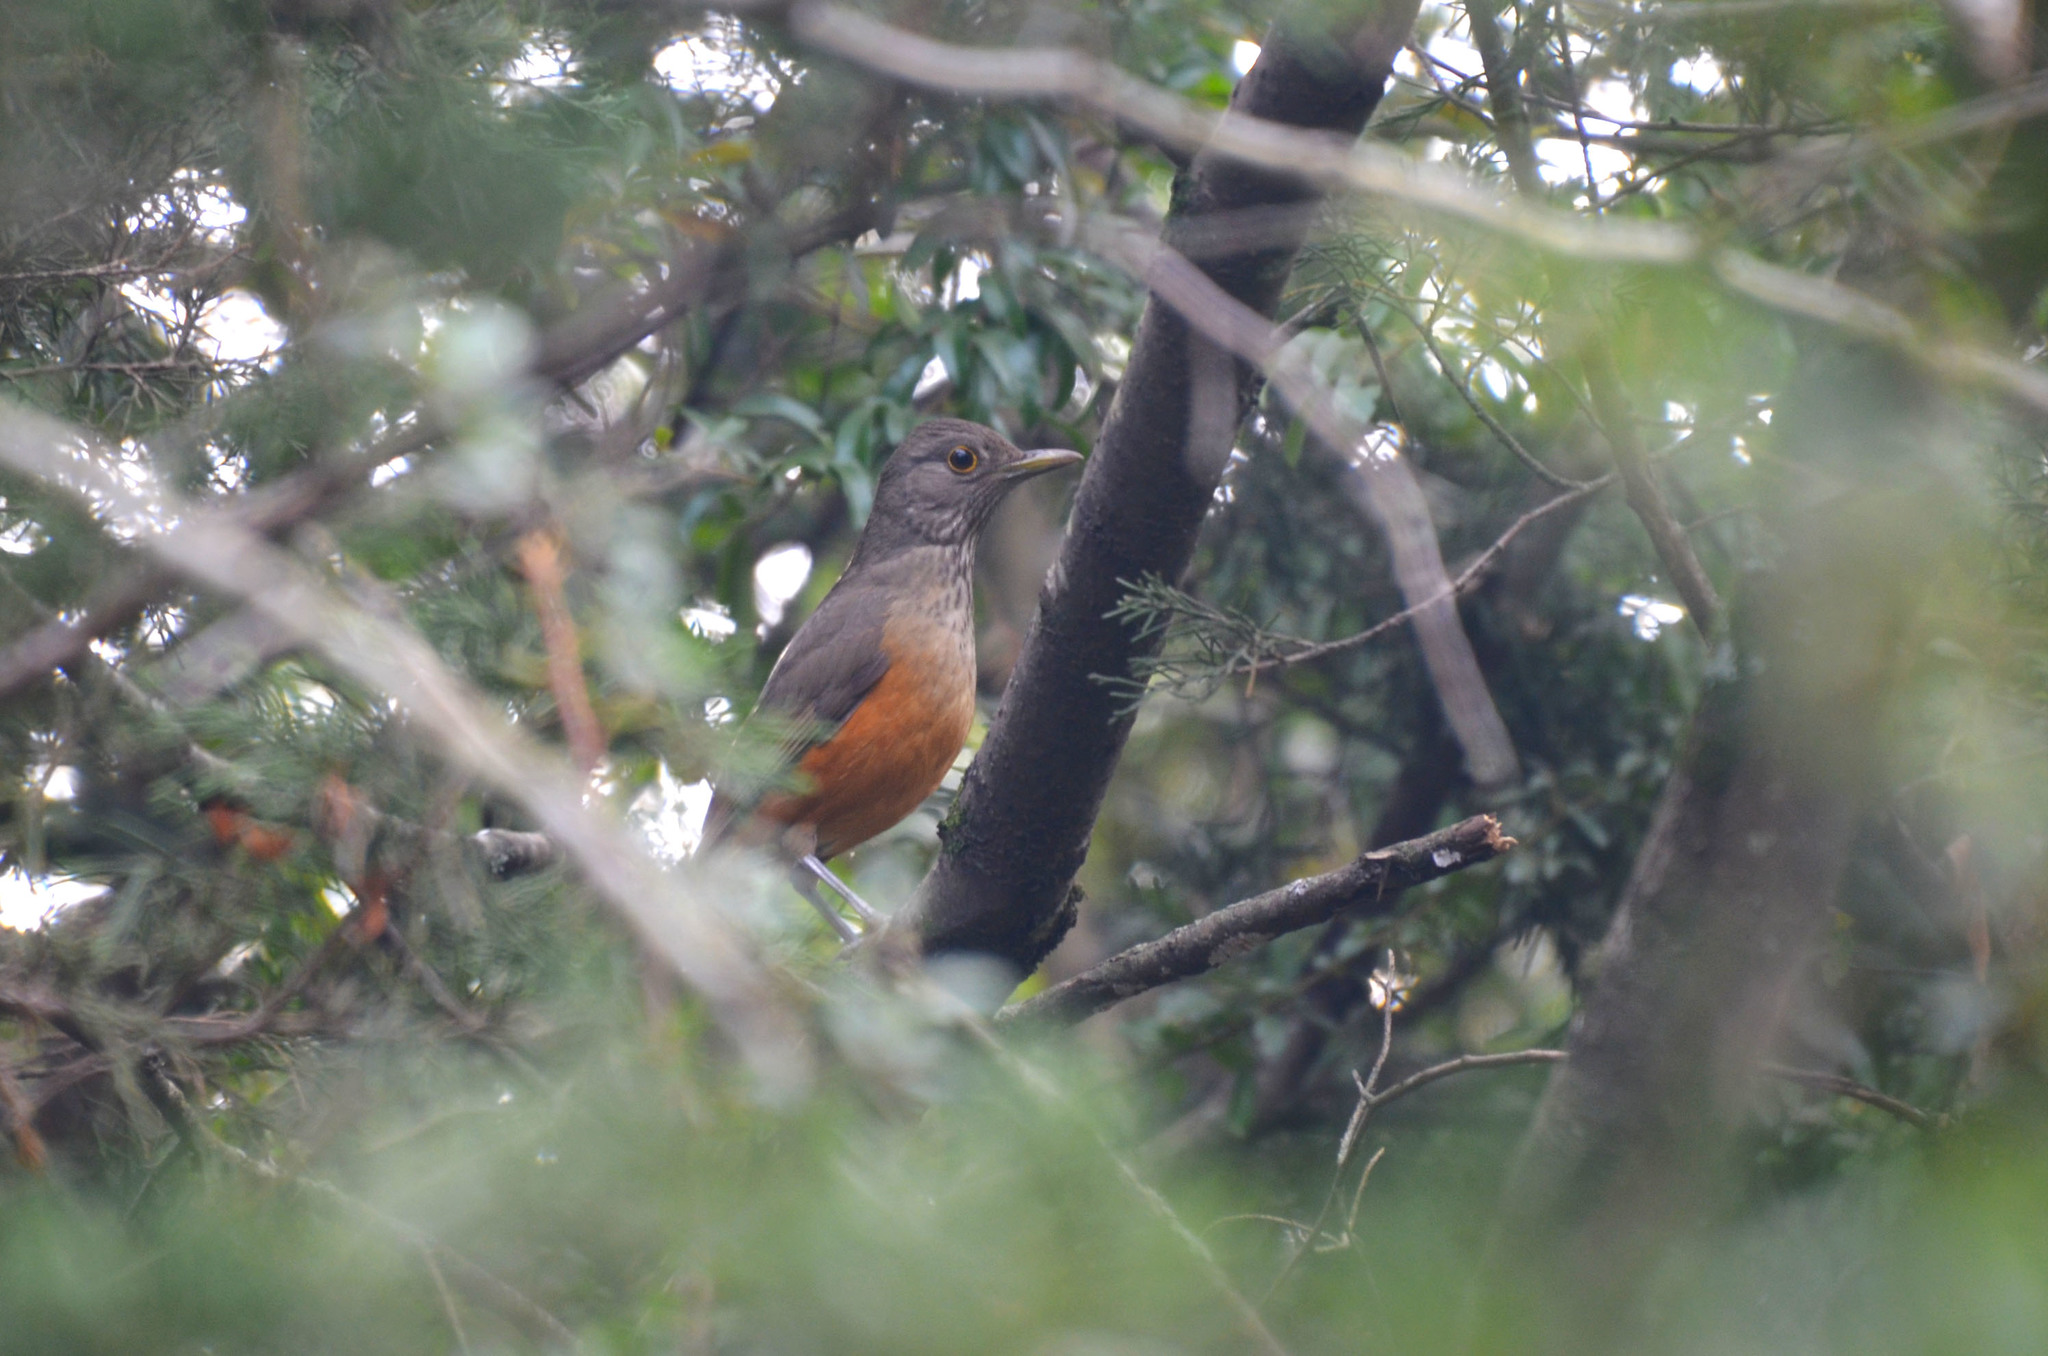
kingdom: Animalia
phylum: Chordata
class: Aves
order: Passeriformes
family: Turdidae
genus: Turdus
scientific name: Turdus rufiventris
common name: Rufous-bellied thrush
